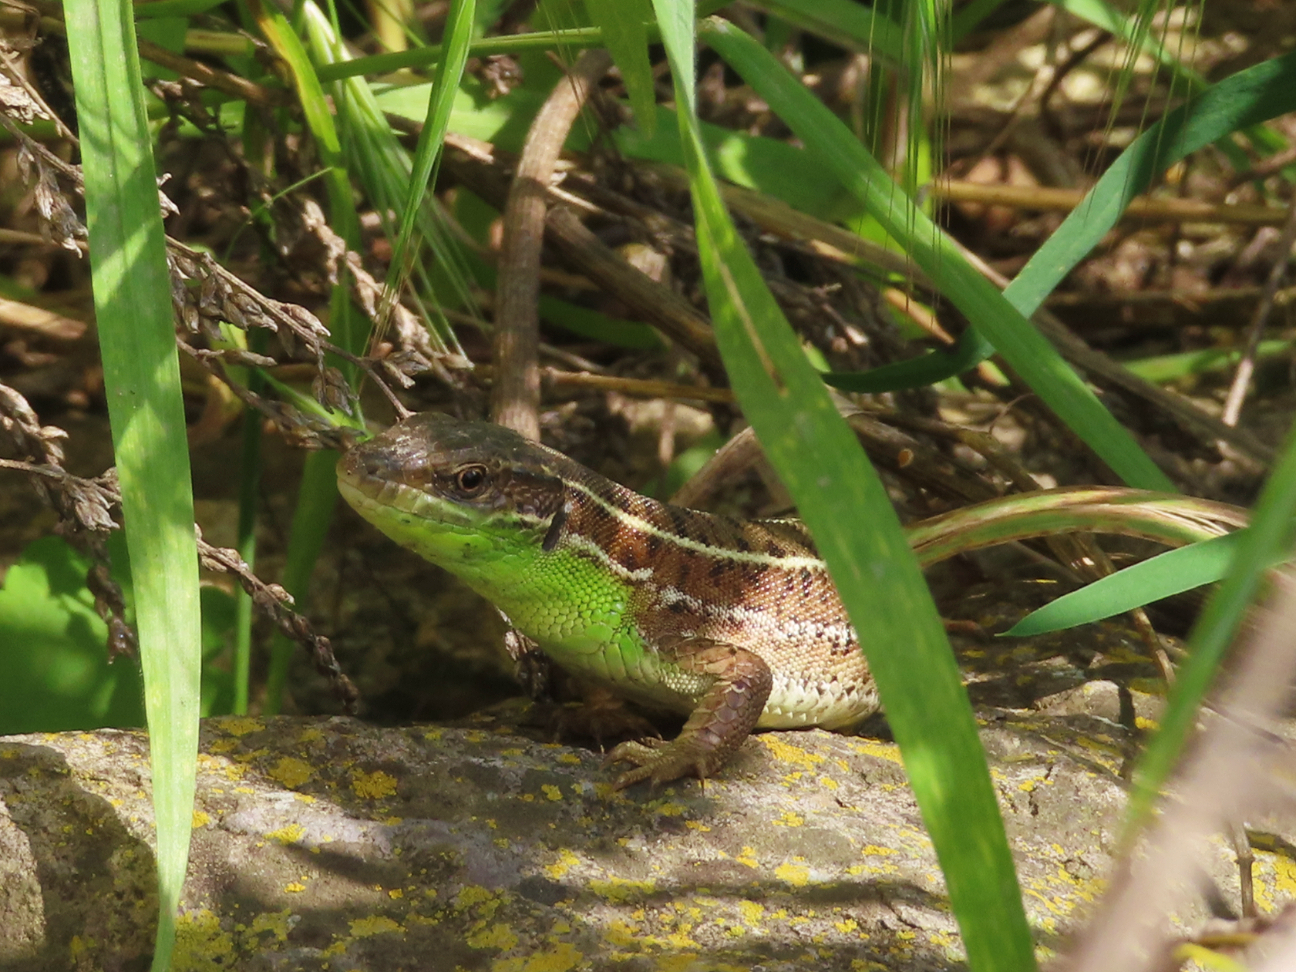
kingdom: Animalia
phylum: Chordata
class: Squamata
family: Lacertidae
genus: Lacerta
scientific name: Lacerta strigata
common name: Caspian green lizard
